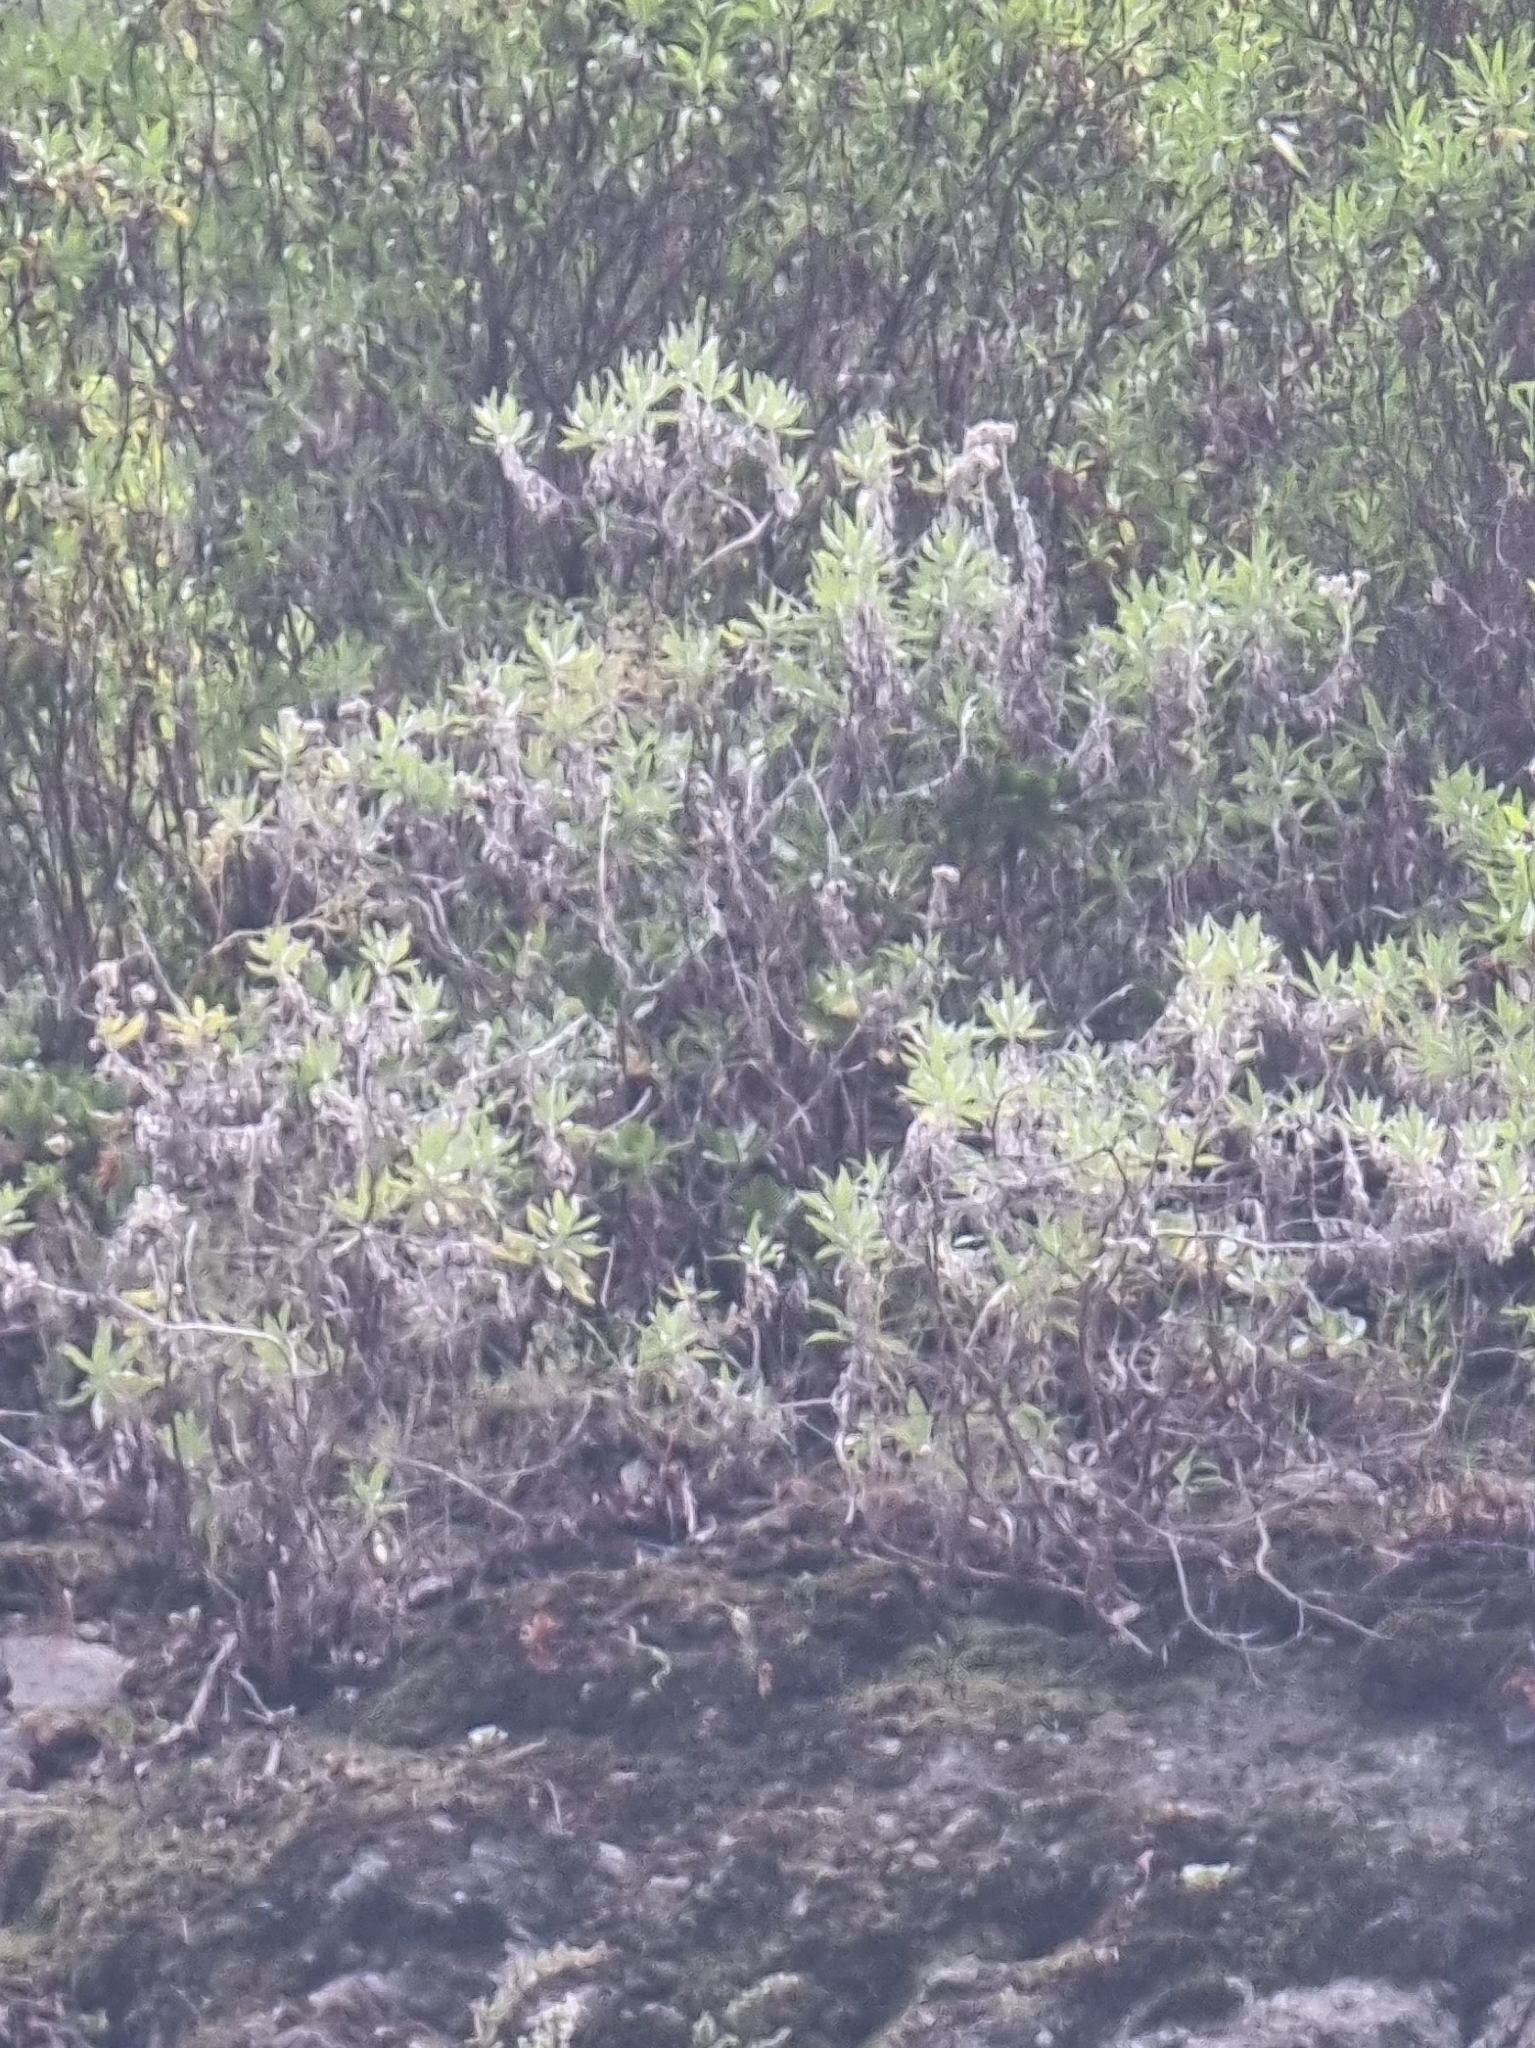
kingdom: Plantae
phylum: Tracheophyta
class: Magnoliopsida
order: Asterales
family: Asteraceae
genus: Helichrysum
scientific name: Helichrysum melaleucum
